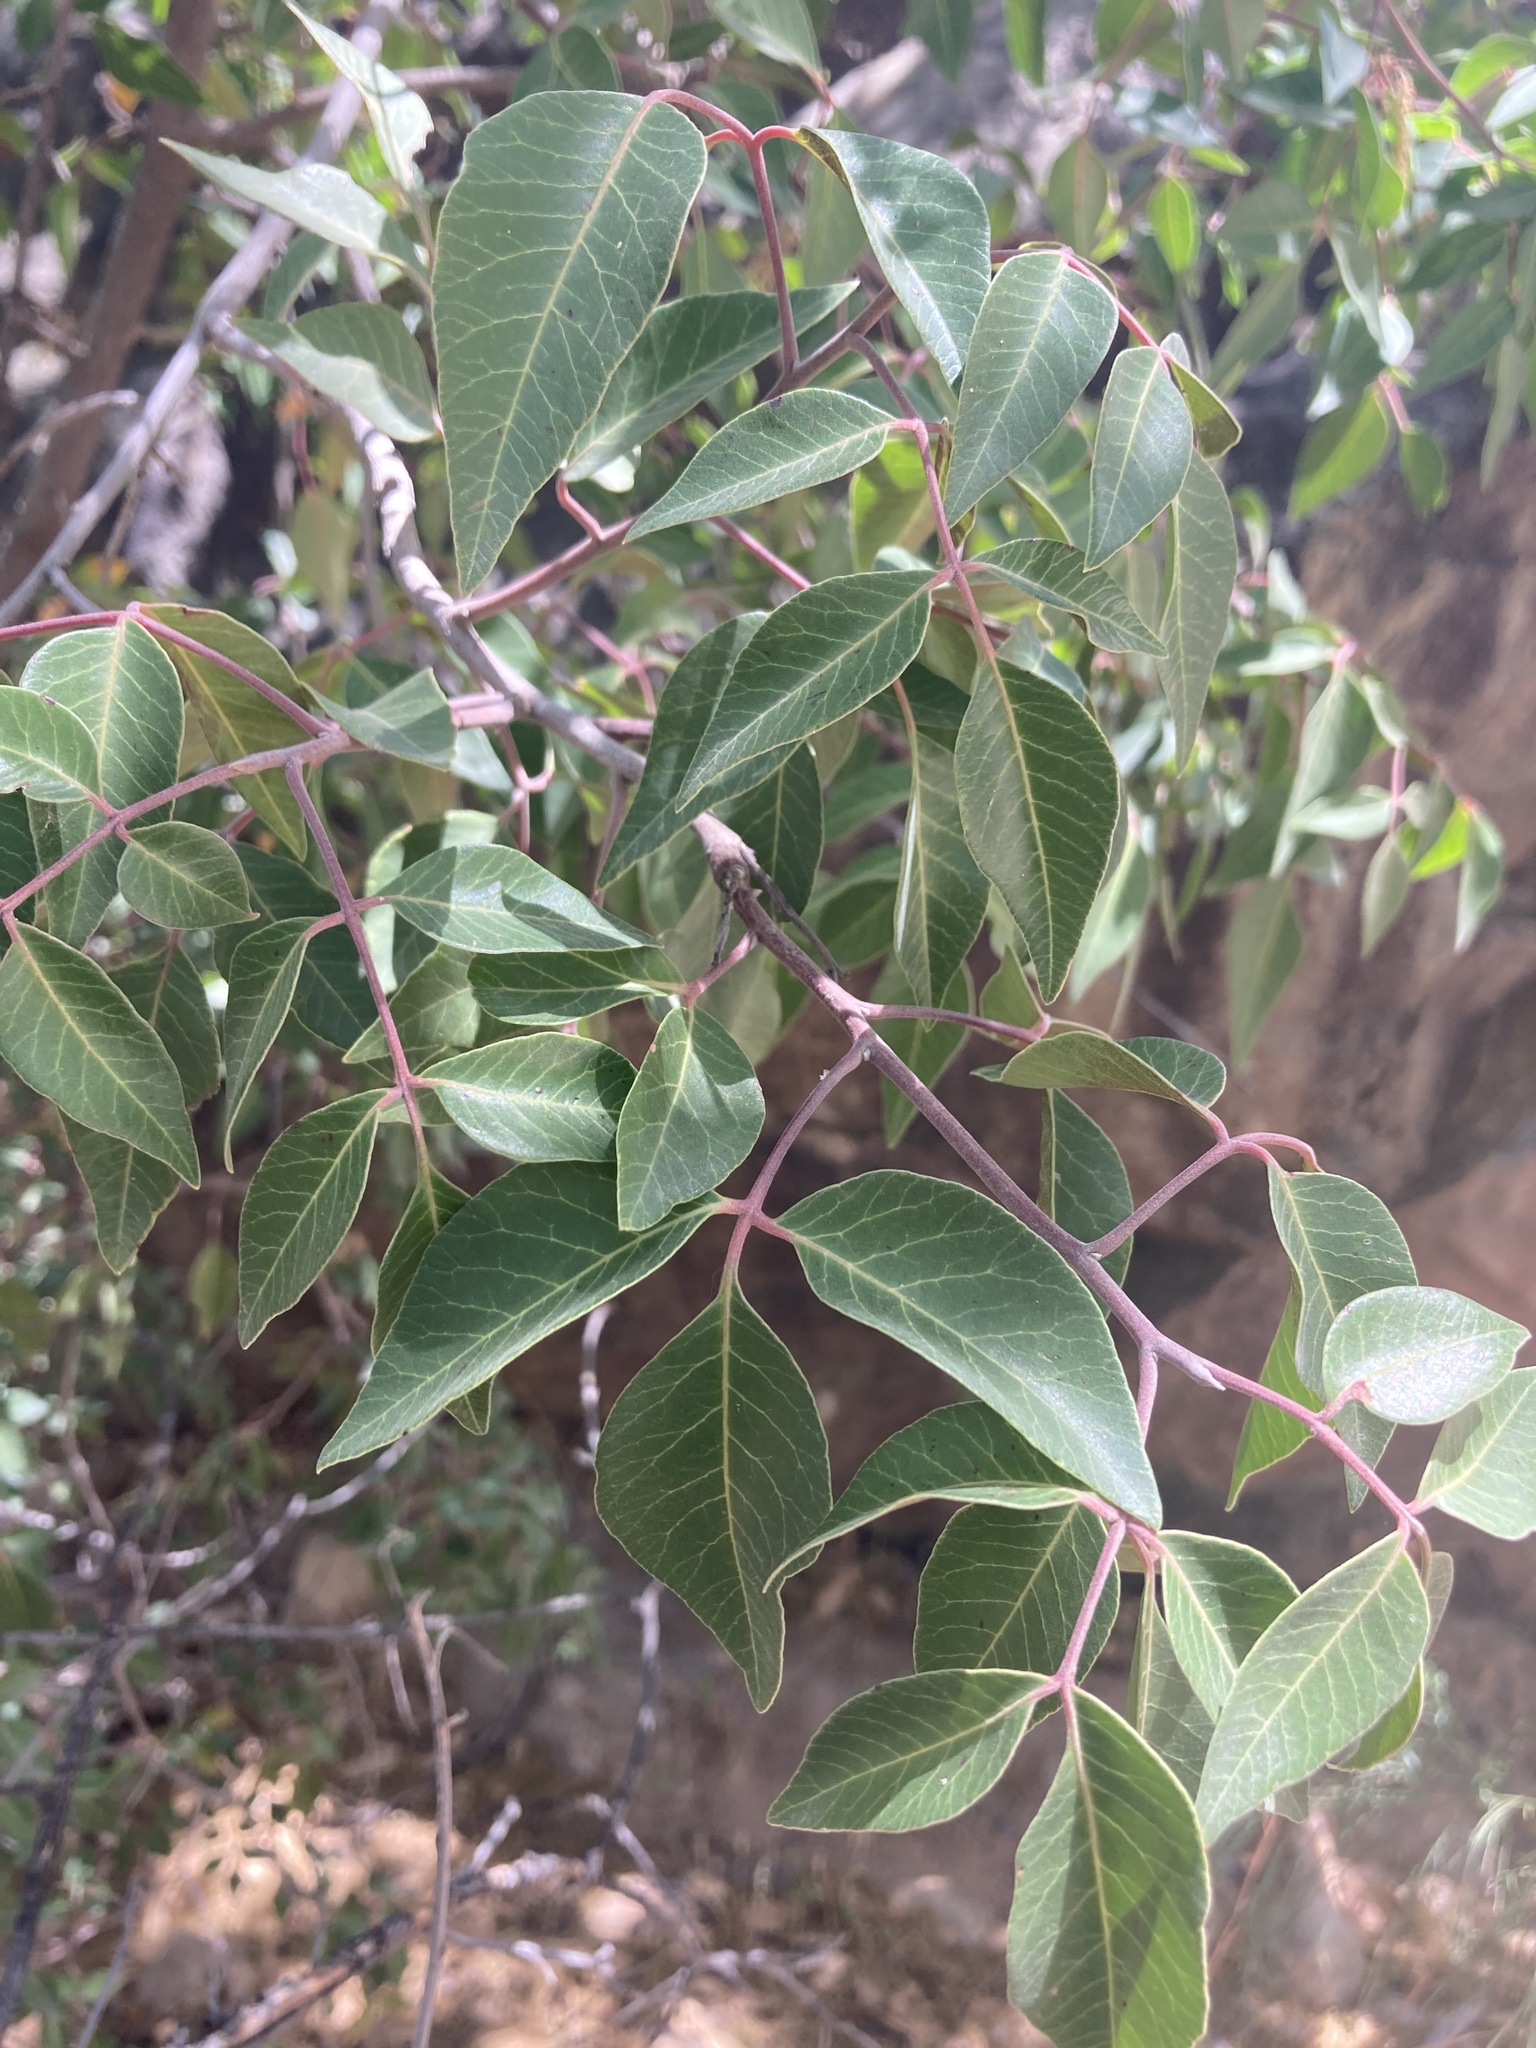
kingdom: Plantae
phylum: Tracheophyta
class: Magnoliopsida
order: Sapindales
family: Anacardiaceae
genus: Rhus
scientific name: Rhus virens
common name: Evergreen sumac
